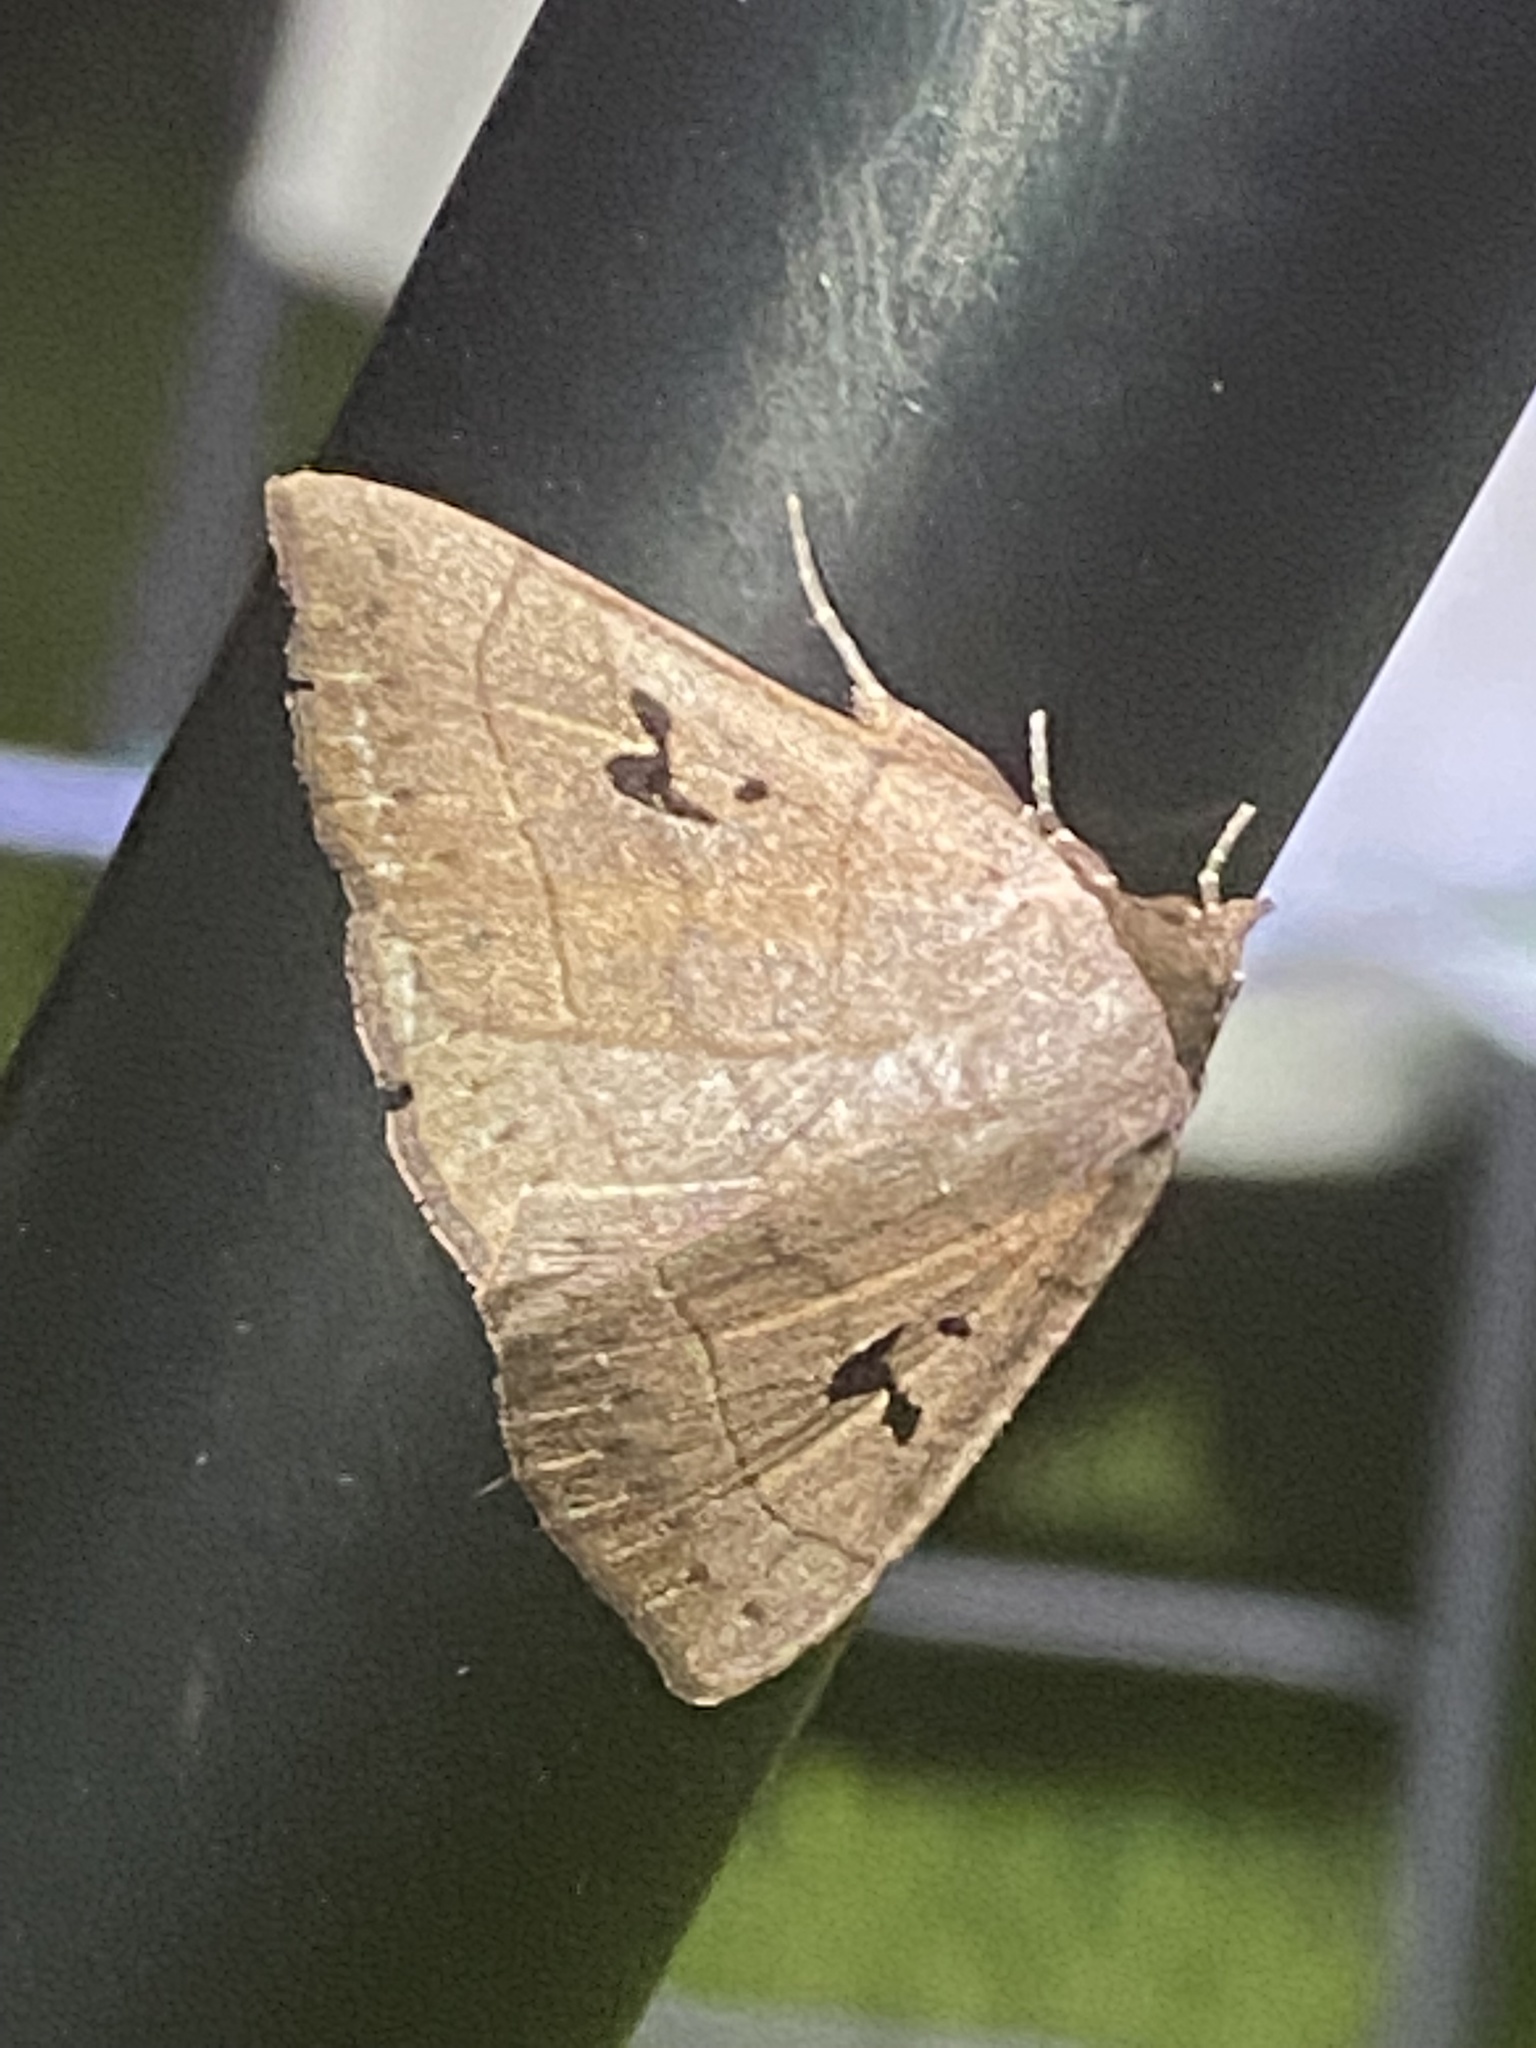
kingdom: Animalia
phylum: Arthropoda
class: Insecta
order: Lepidoptera
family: Erebidae
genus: Panopoda
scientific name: Panopoda carneicosta
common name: Brown panopoda moth
